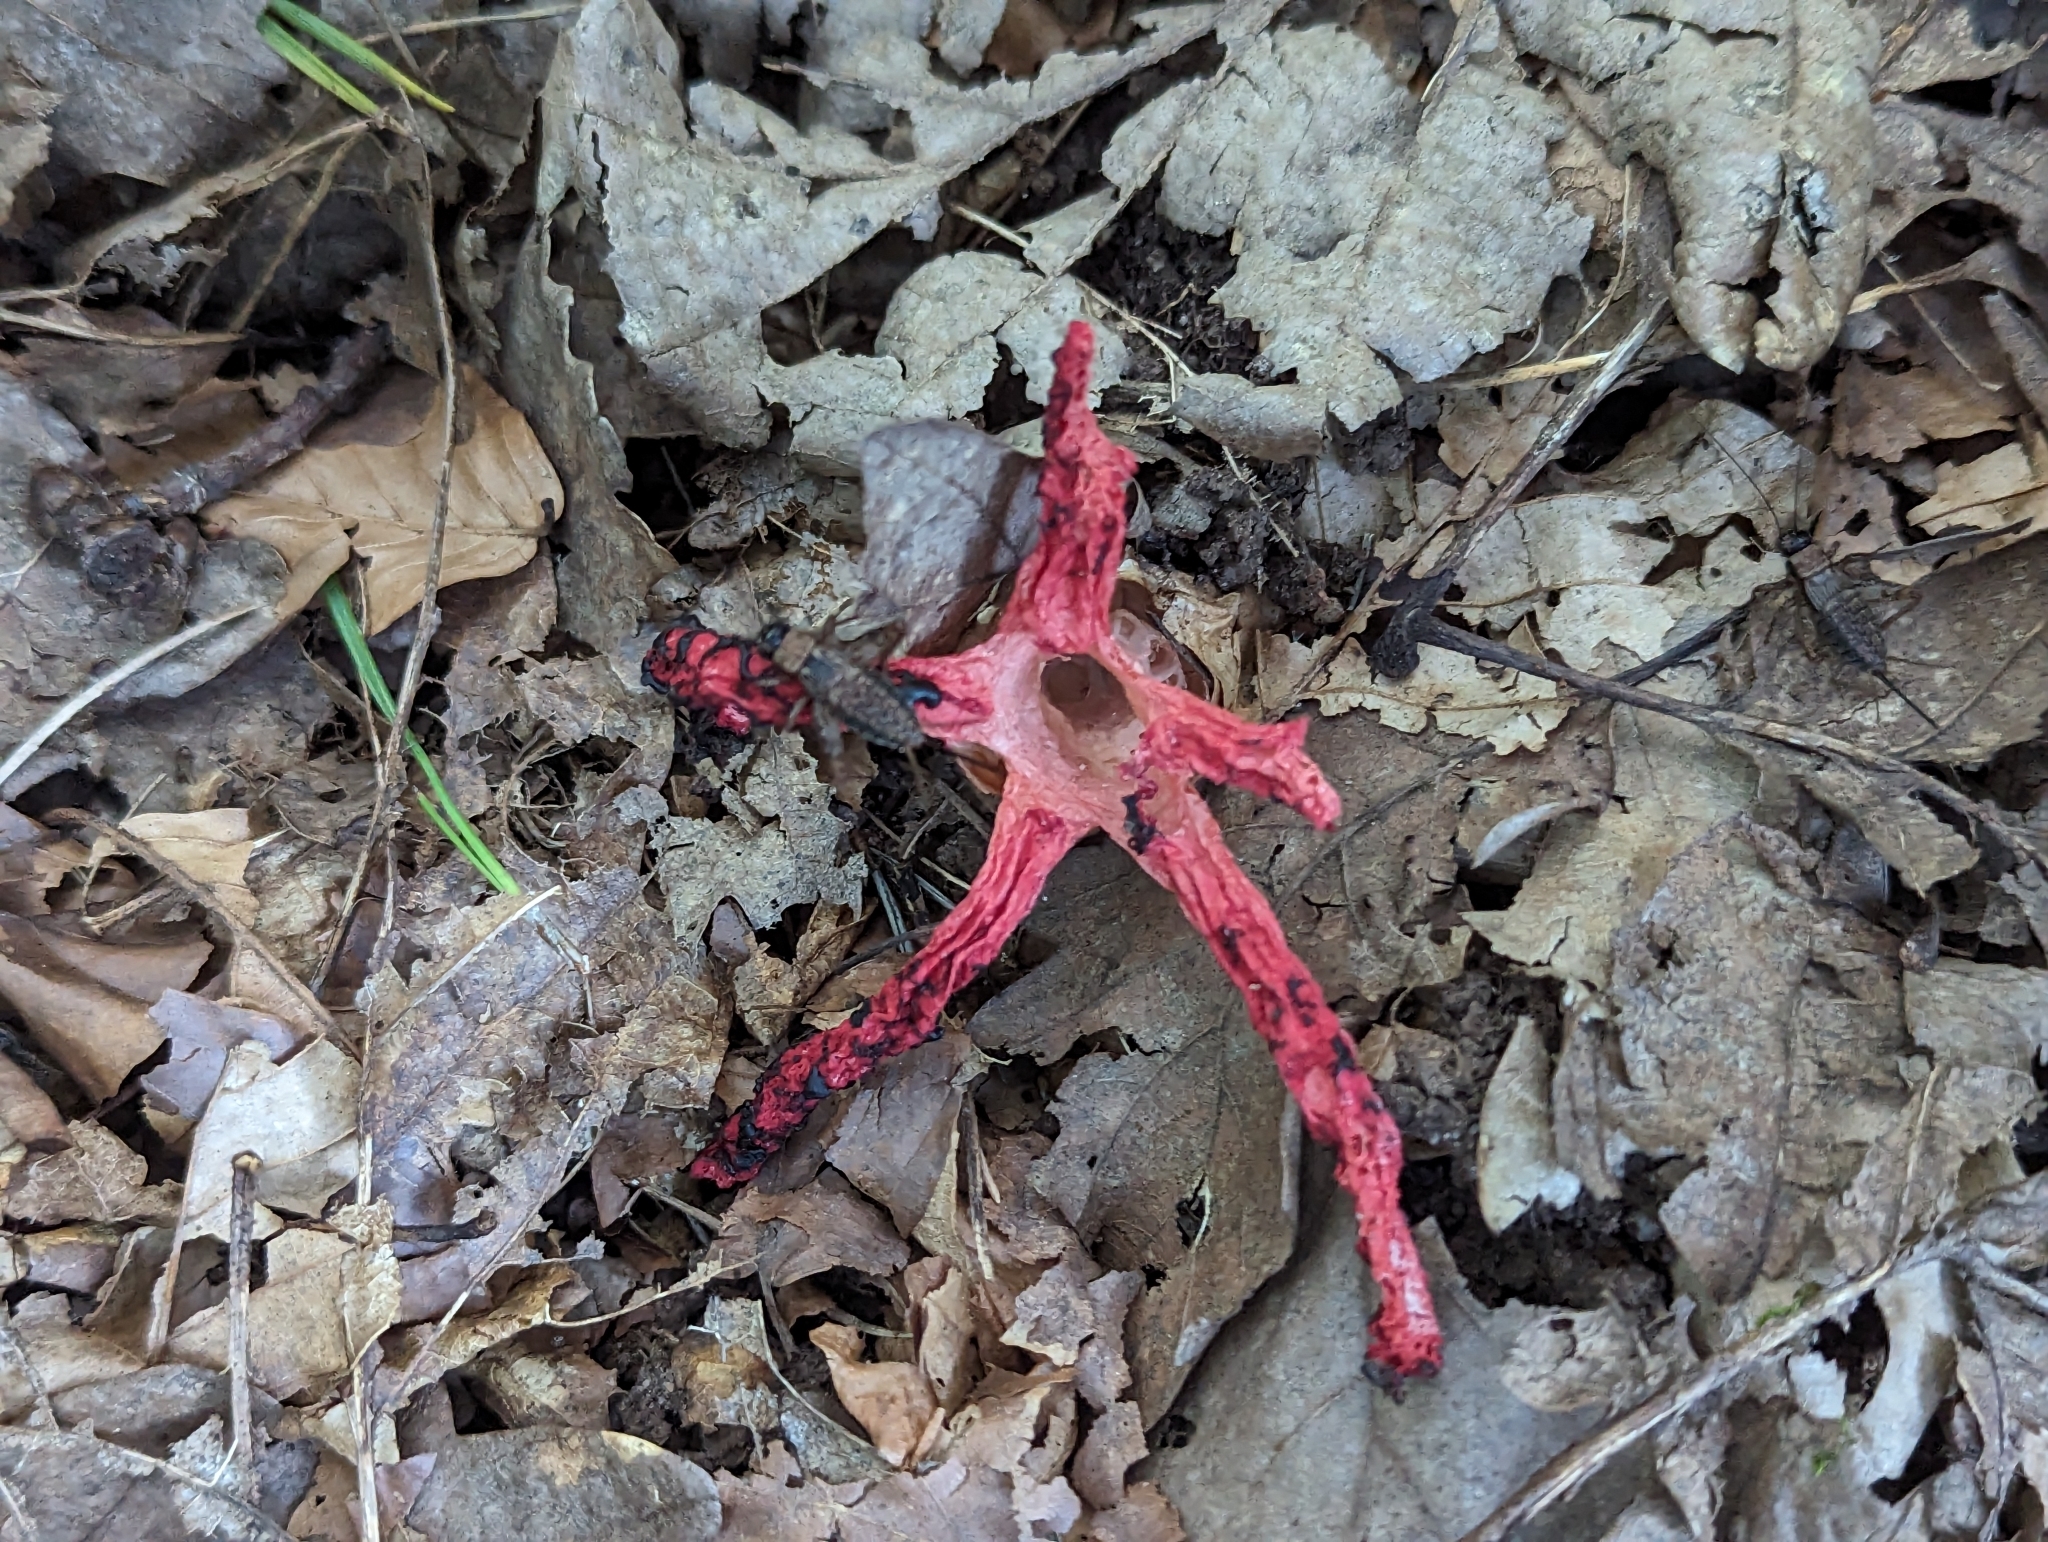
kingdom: Fungi
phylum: Basidiomycota
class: Agaricomycetes
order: Phallales
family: Phallaceae
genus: Clathrus
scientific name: Clathrus archeri
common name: Devil's fingers
